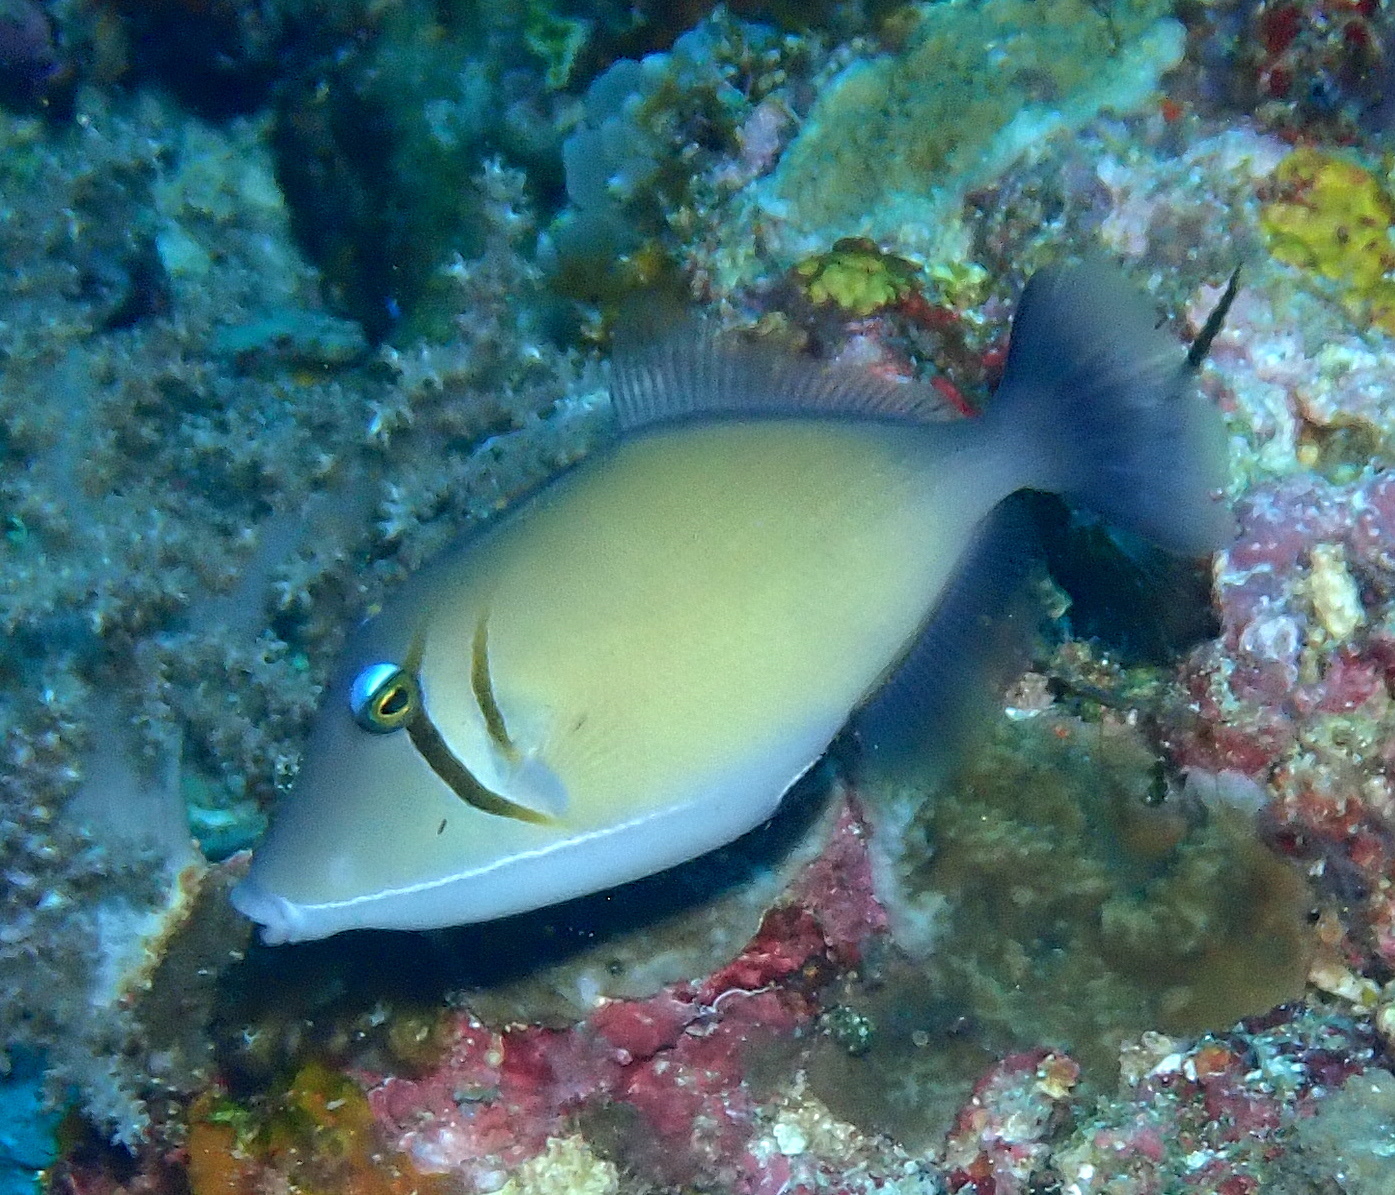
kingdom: Animalia
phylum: Chordata
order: Tetraodontiformes
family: Balistidae
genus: Sufflamen
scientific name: Sufflamen bursa
